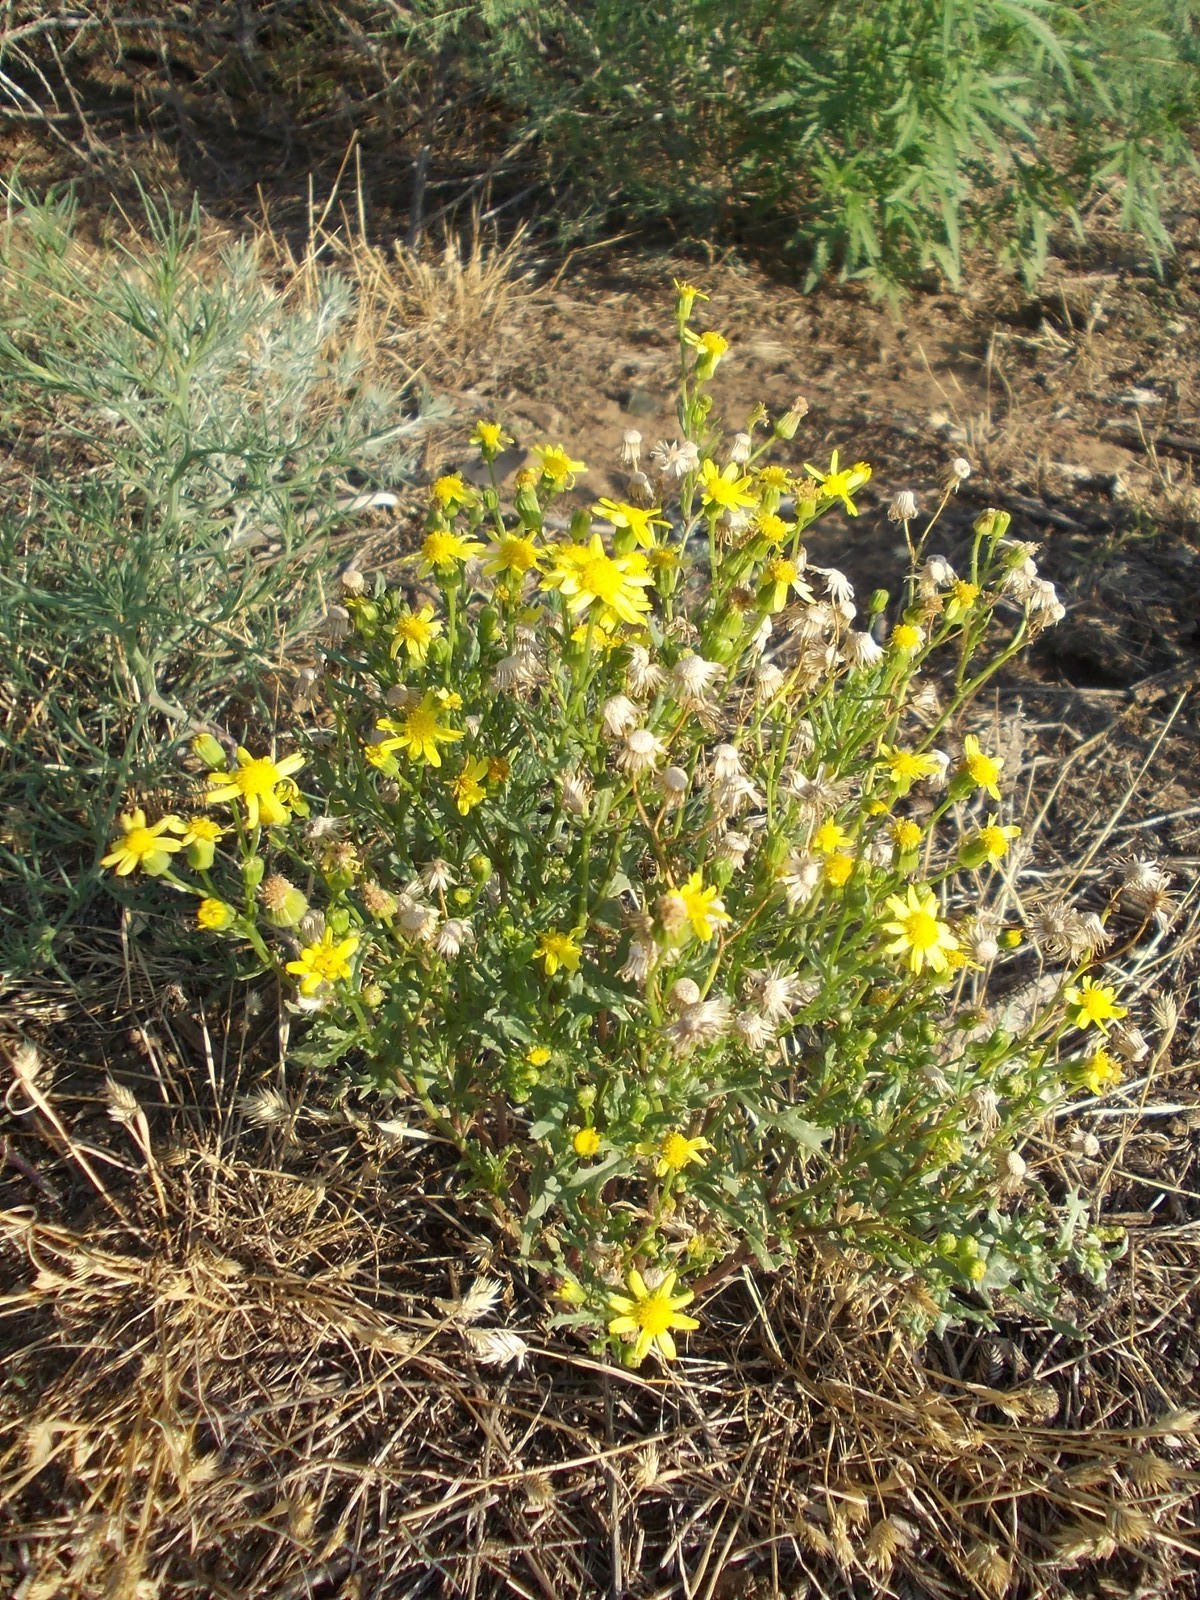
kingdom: Plantae
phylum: Tracheophyta
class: Magnoliopsida
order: Asterales
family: Asteraceae
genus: Senecio
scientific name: Senecio vernalis
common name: Eastern groundsel
